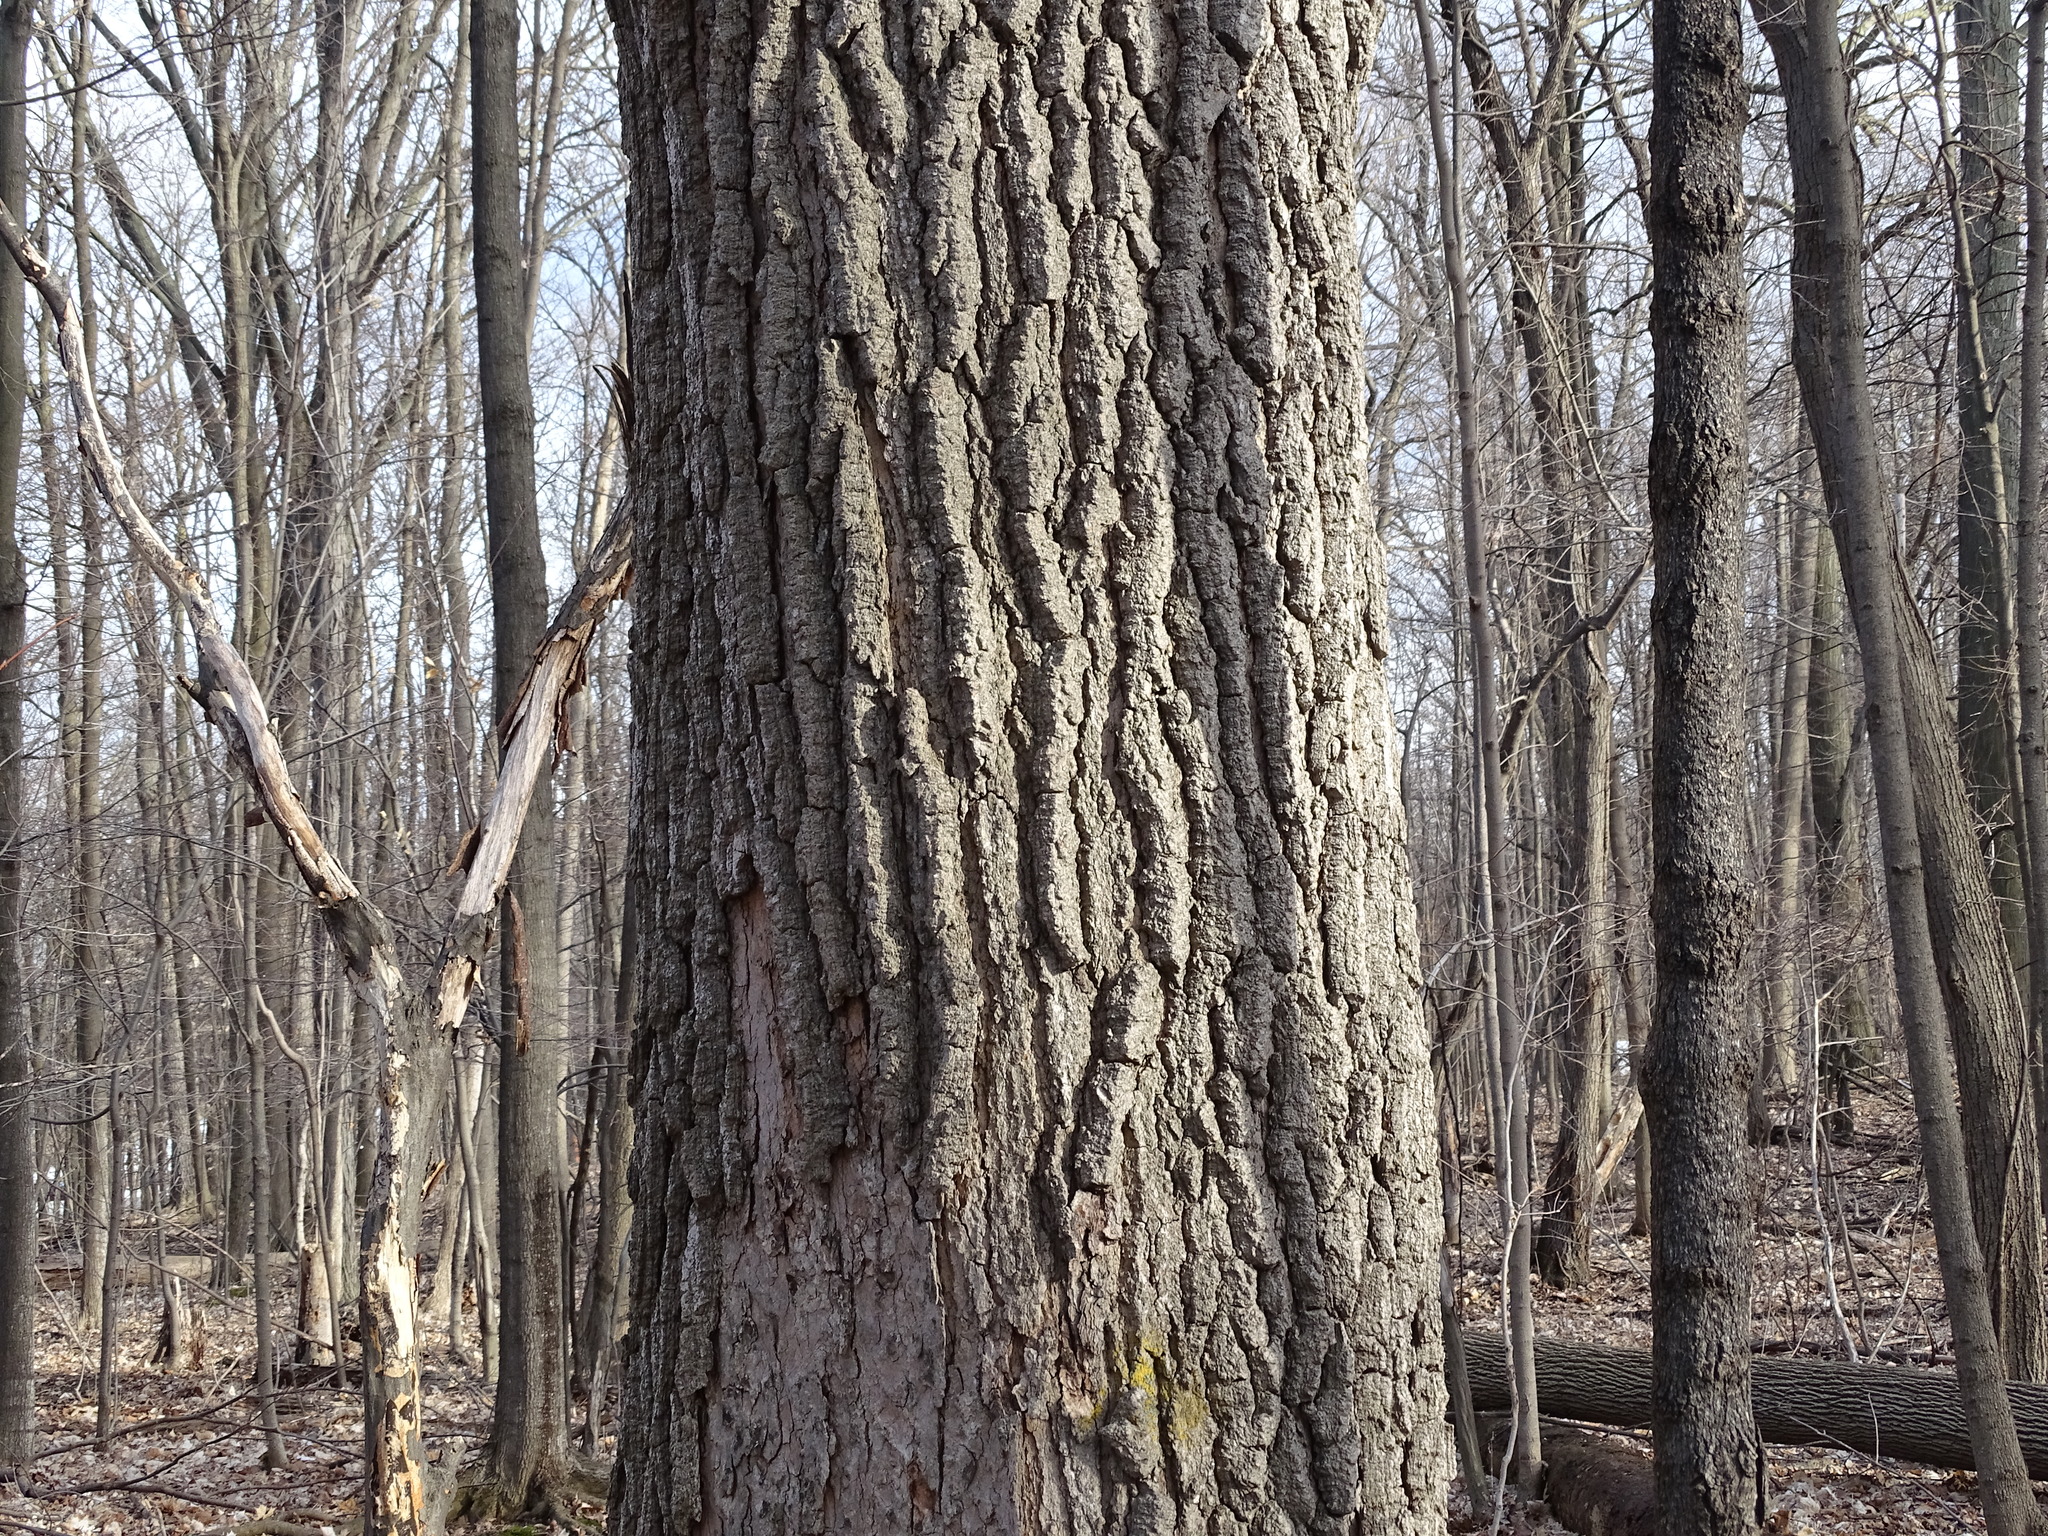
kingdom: Plantae
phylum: Tracheophyta
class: Magnoliopsida
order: Sapindales
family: Sapindaceae
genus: Acer
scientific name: Acer saccharum
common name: Sugar maple
